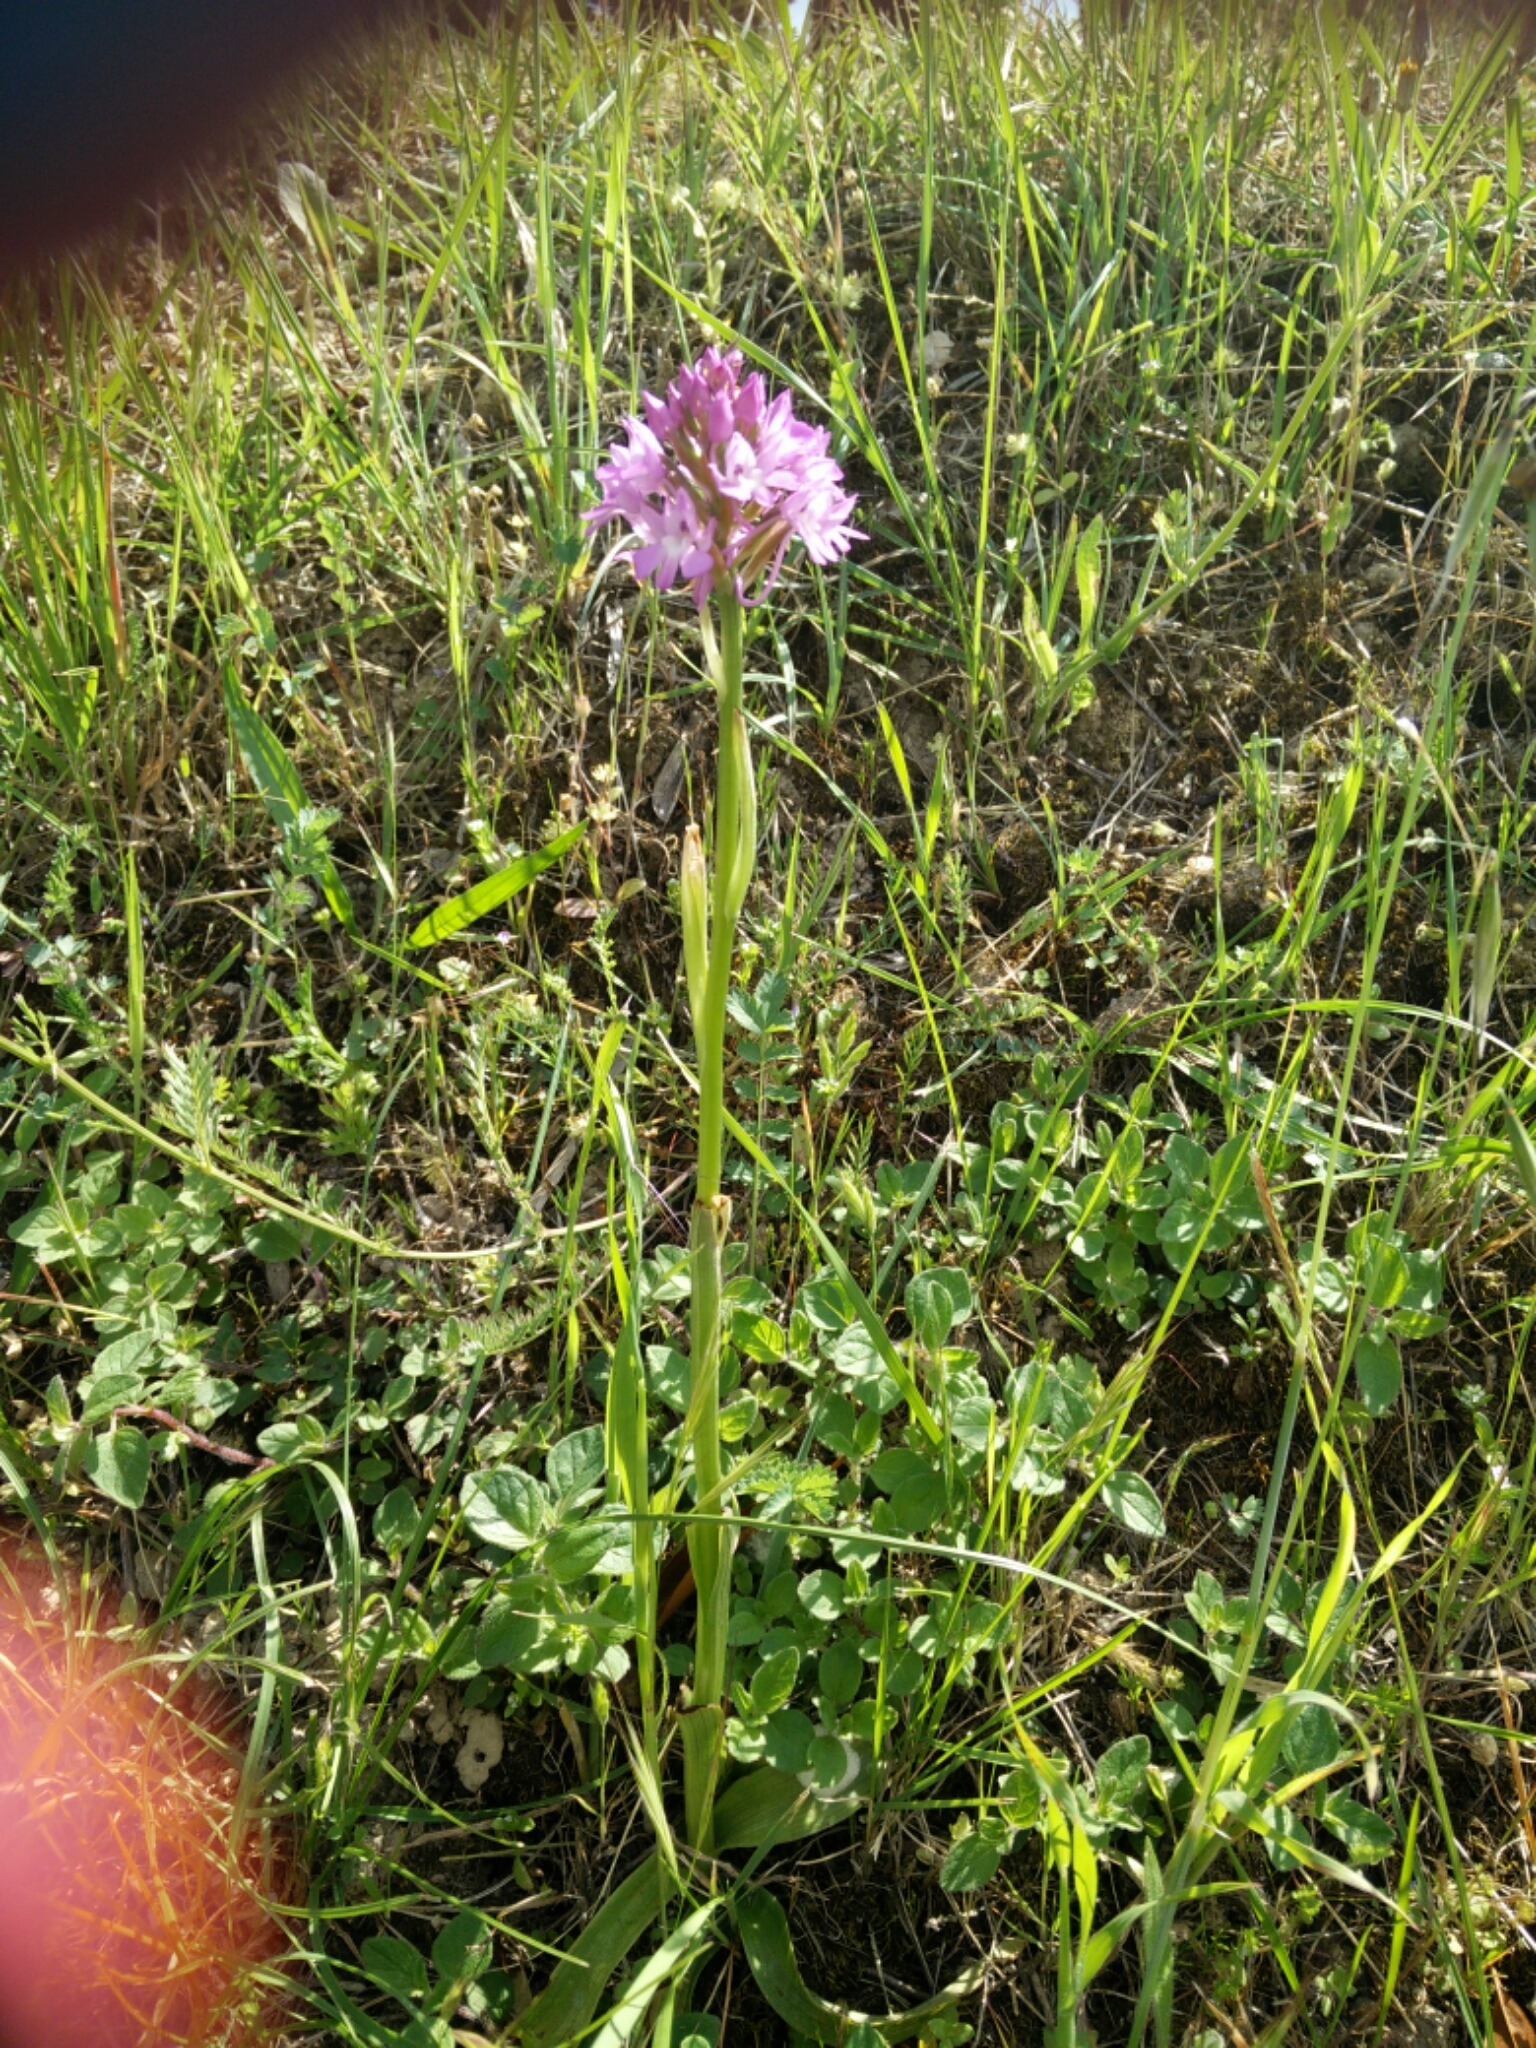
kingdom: Plantae
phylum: Tracheophyta
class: Liliopsida
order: Asparagales
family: Orchidaceae
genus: Anacamptis
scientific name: Anacamptis pyramidalis
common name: Pyramidal orchid
